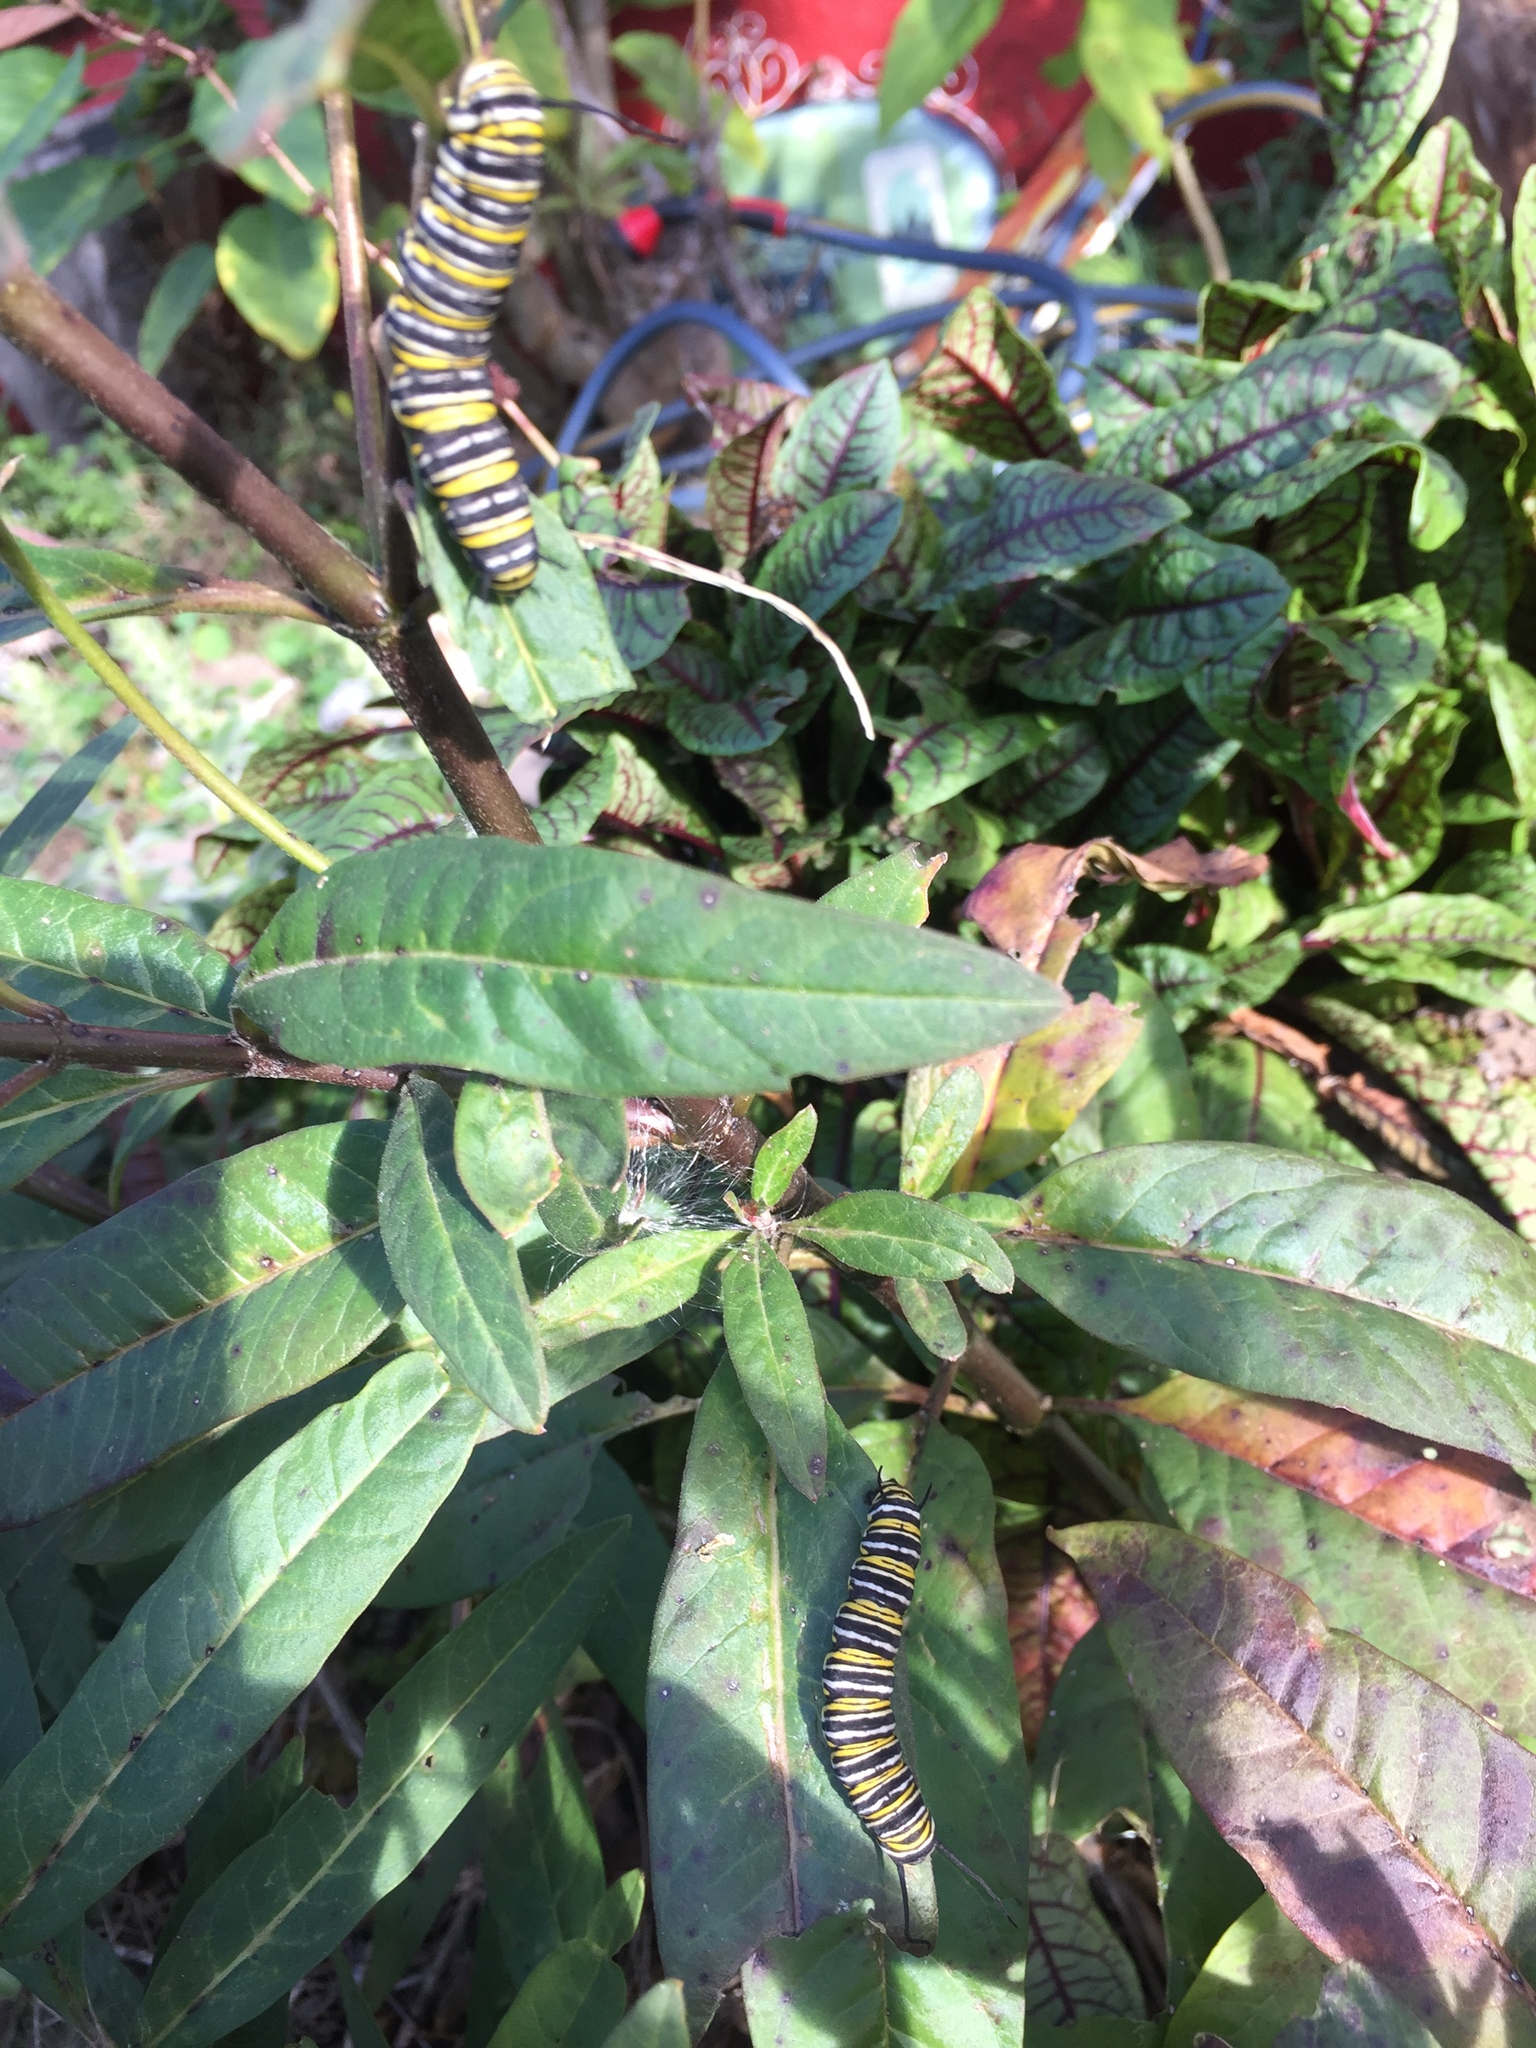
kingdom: Animalia
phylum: Arthropoda
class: Insecta
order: Lepidoptera
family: Nymphalidae
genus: Danaus
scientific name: Danaus plexippus
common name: Monarch
